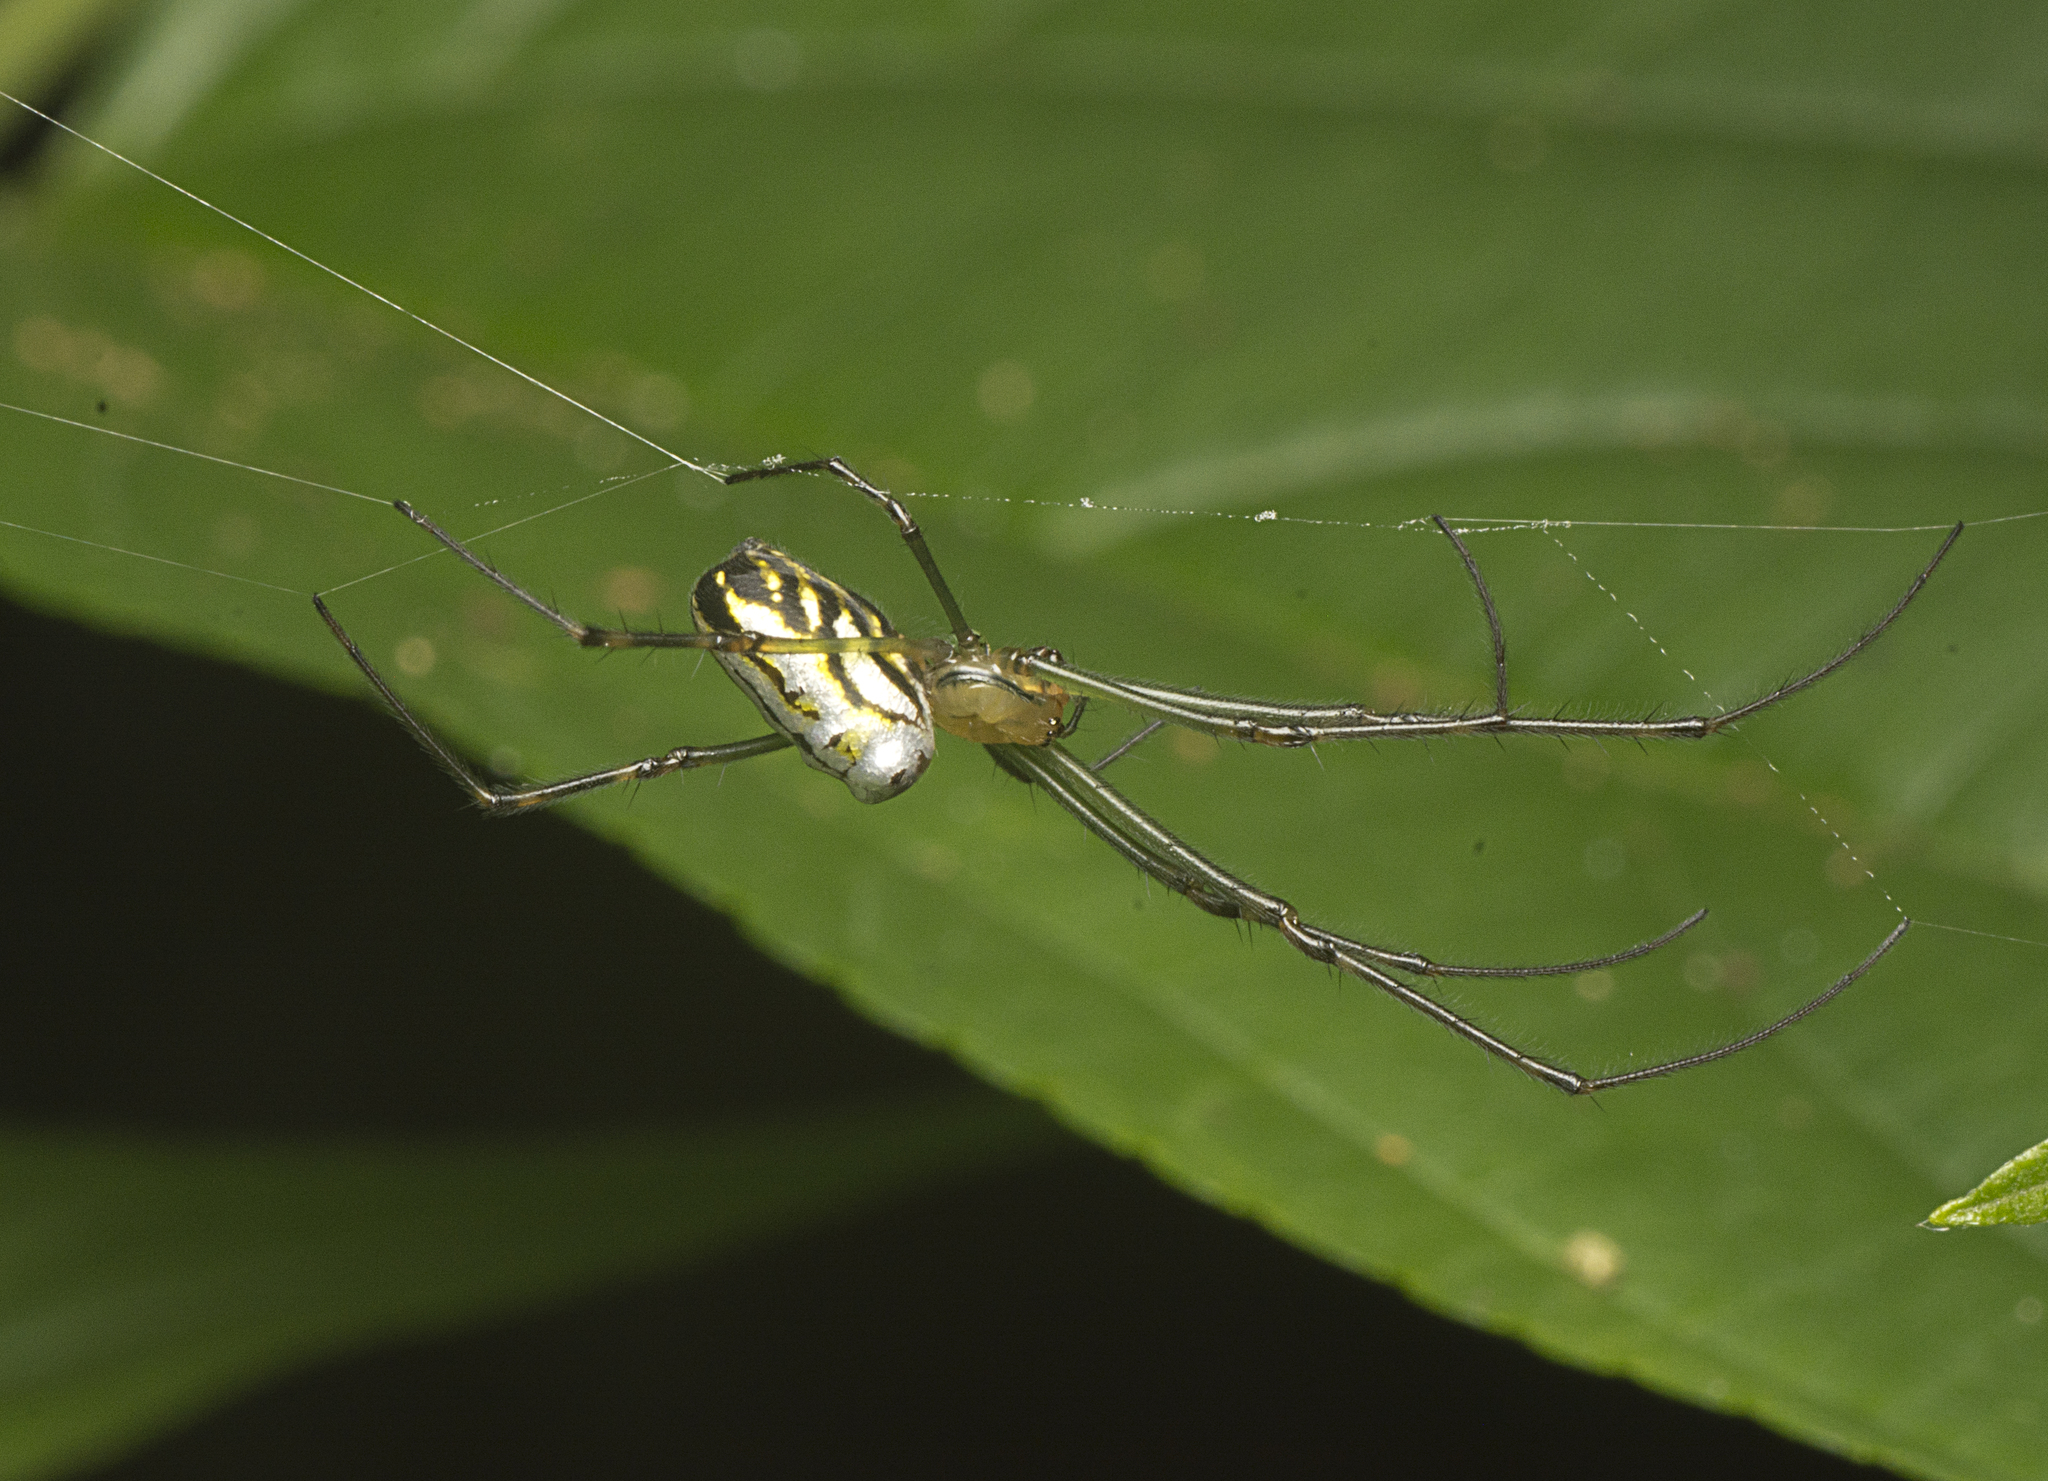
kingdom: Animalia
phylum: Arthropoda
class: Arachnida
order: Araneae
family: Tetragnathidae
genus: Leucauge
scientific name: Leucauge dromedaria
